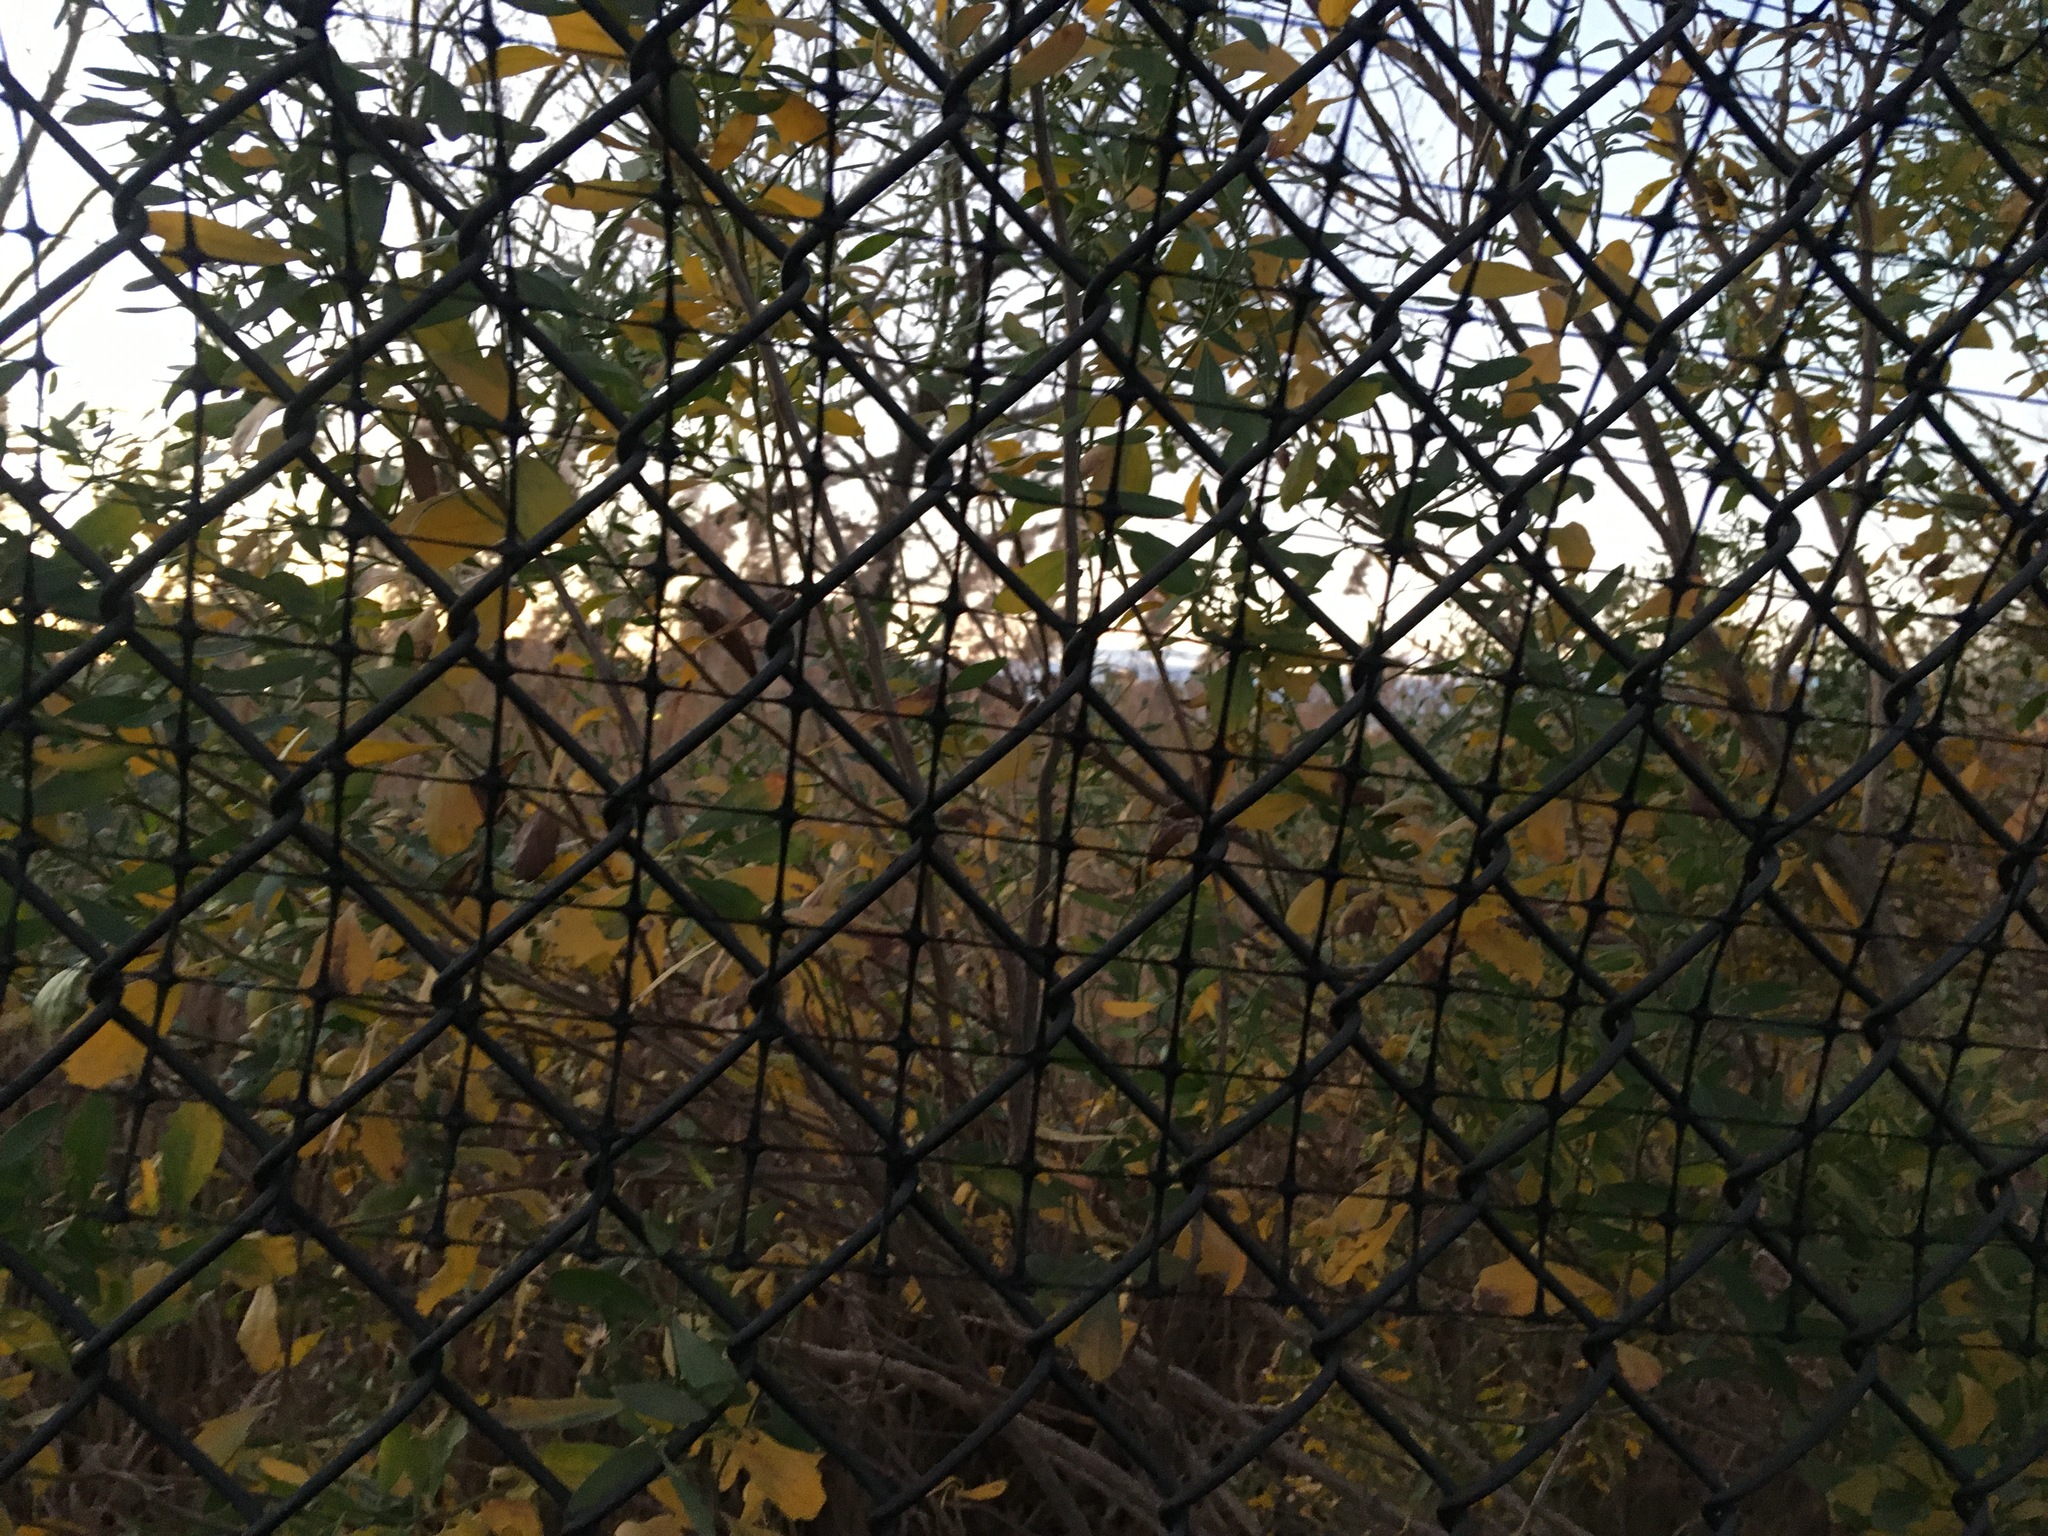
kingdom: Plantae
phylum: Tracheophyta
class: Magnoliopsida
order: Asterales
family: Asteraceae
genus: Baccharis
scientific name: Baccharis halimifolia
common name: Eastern baccharis
